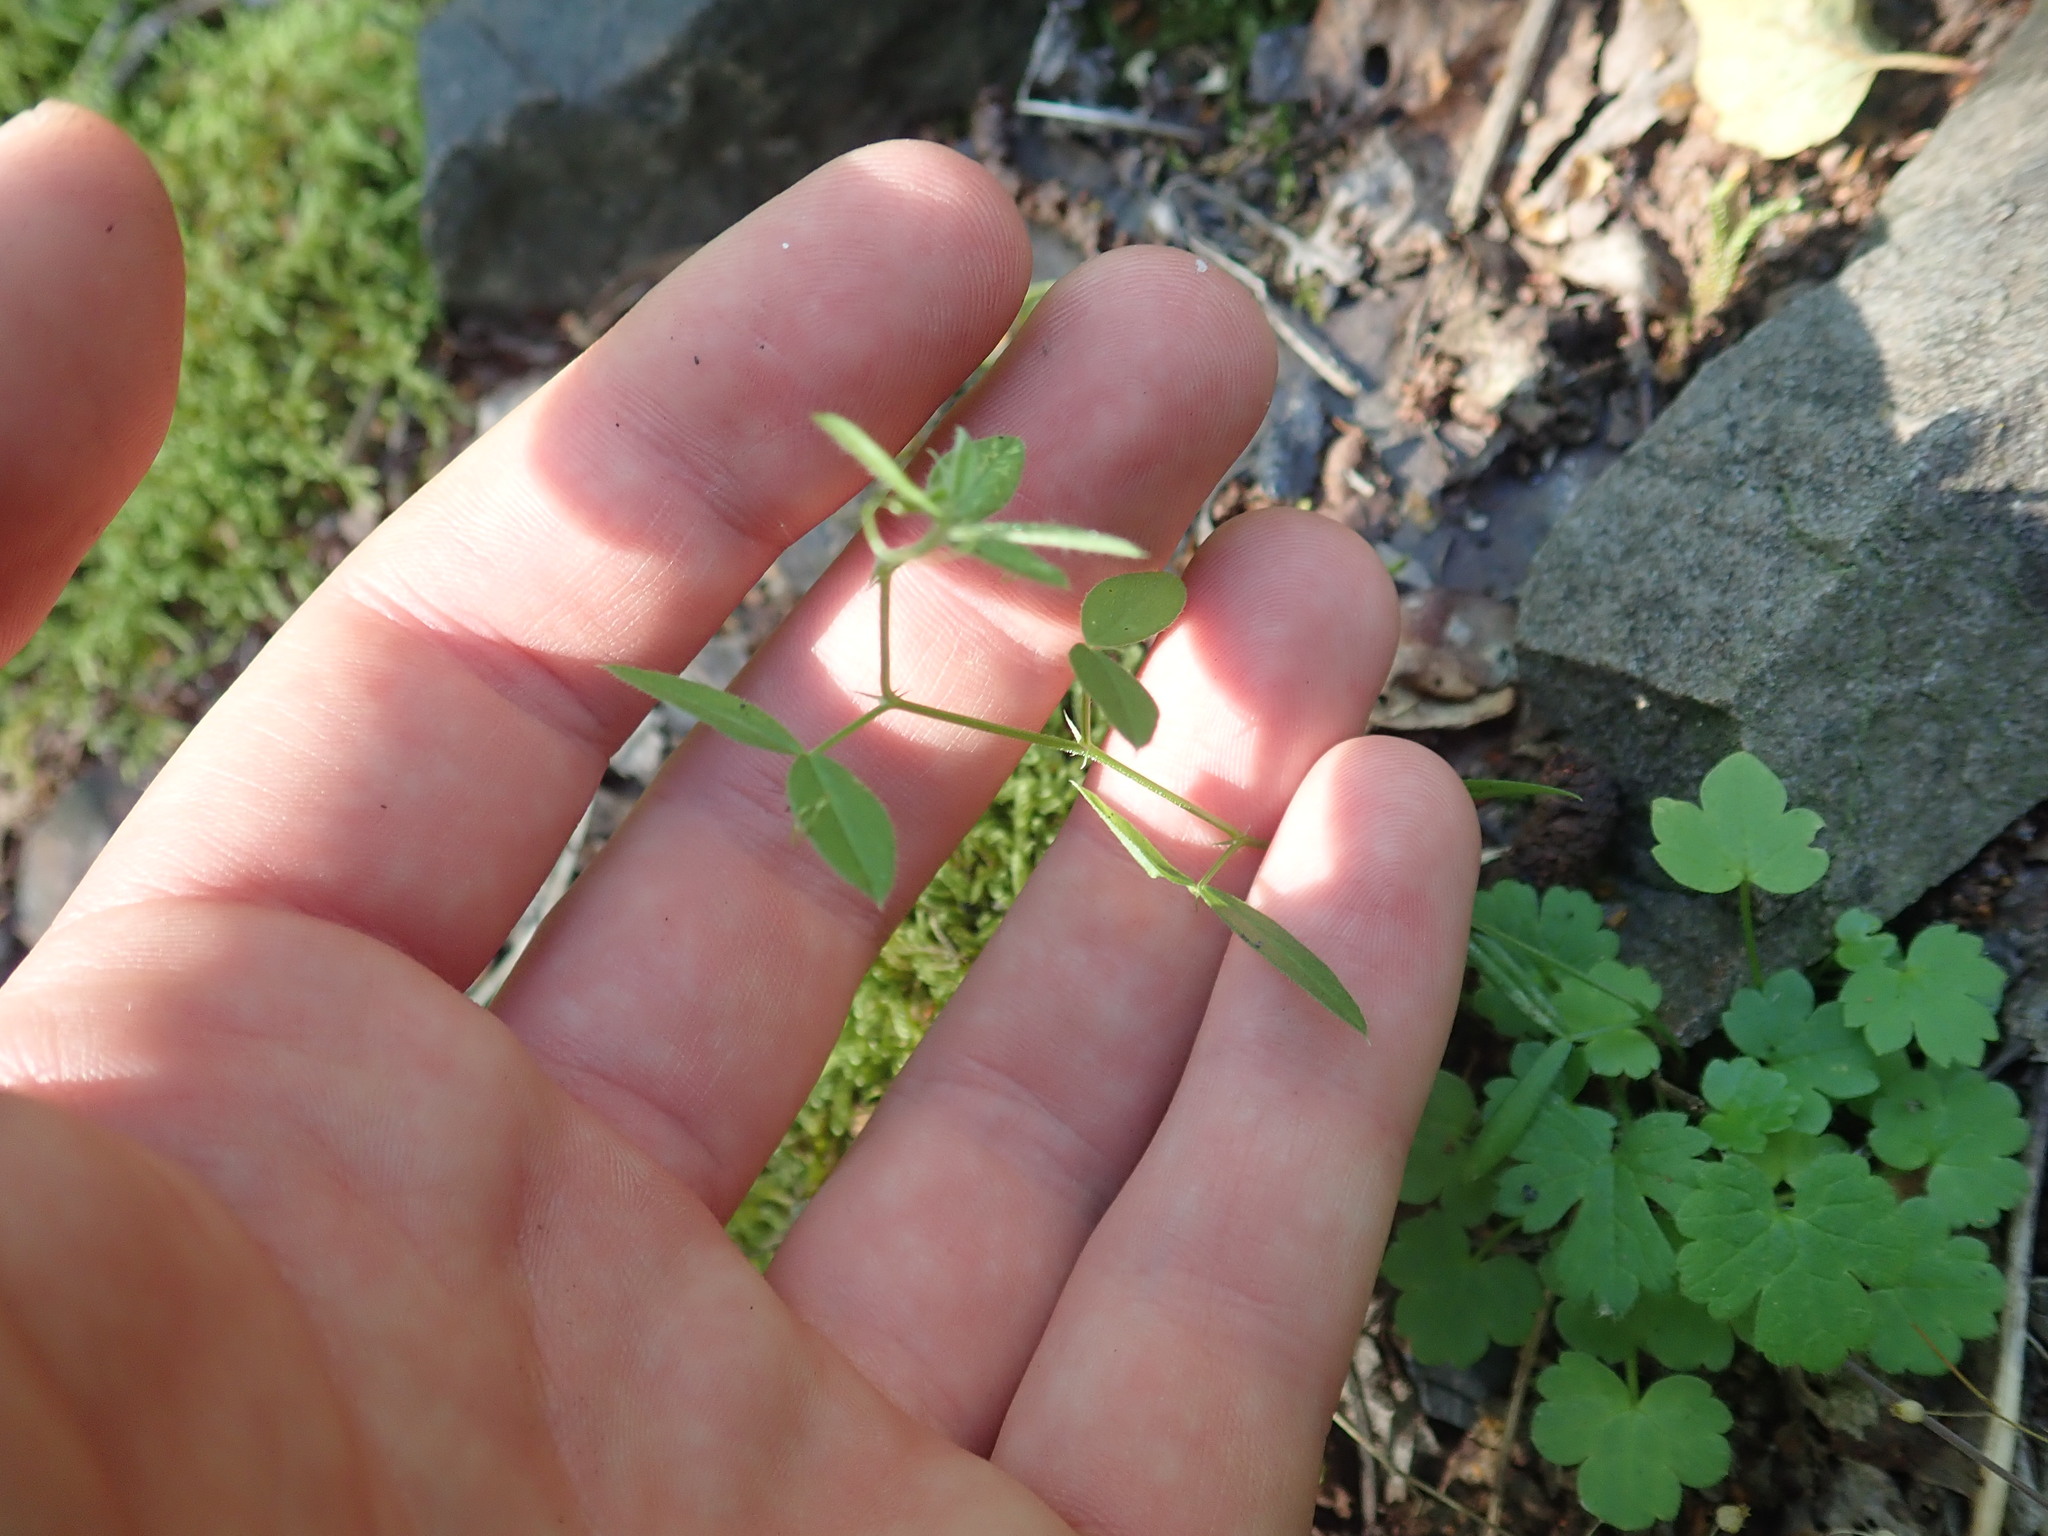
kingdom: Plantae
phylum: Tracheophyta
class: Magnoliopsida
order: Fabales
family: Fabaceae
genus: Lathyrus
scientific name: Lathyrus
